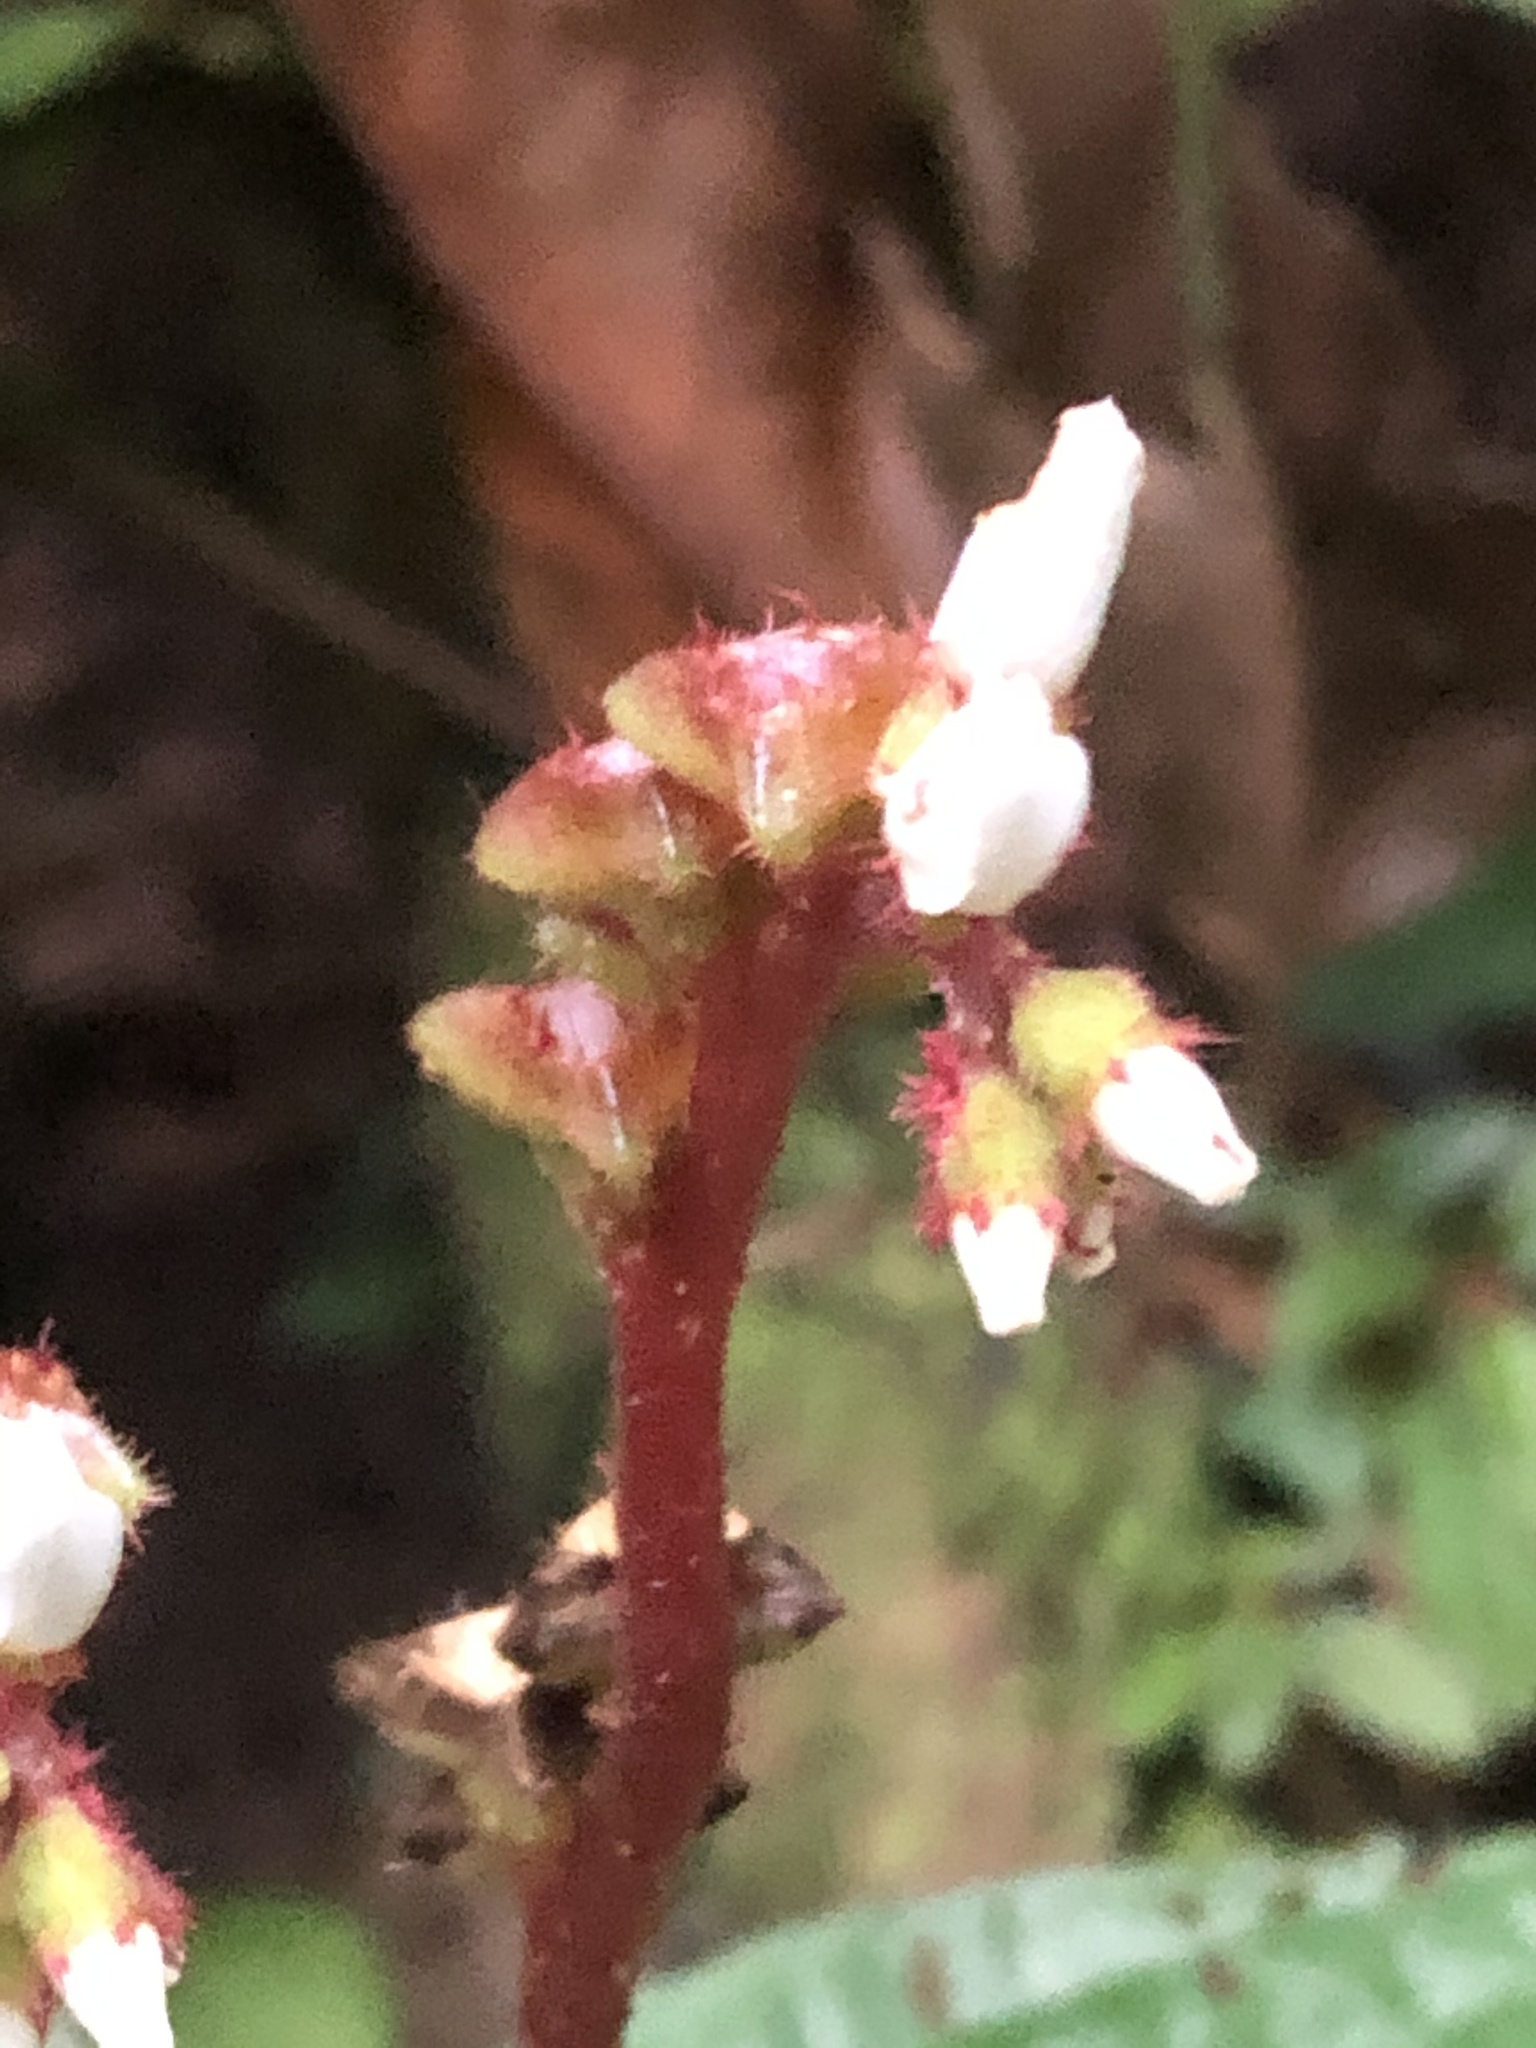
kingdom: Plantae
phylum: Tracheophyta
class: Magnoliopsida
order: Myrtales
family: Melastomataceae
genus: Triolena
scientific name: Triolena amazonica
